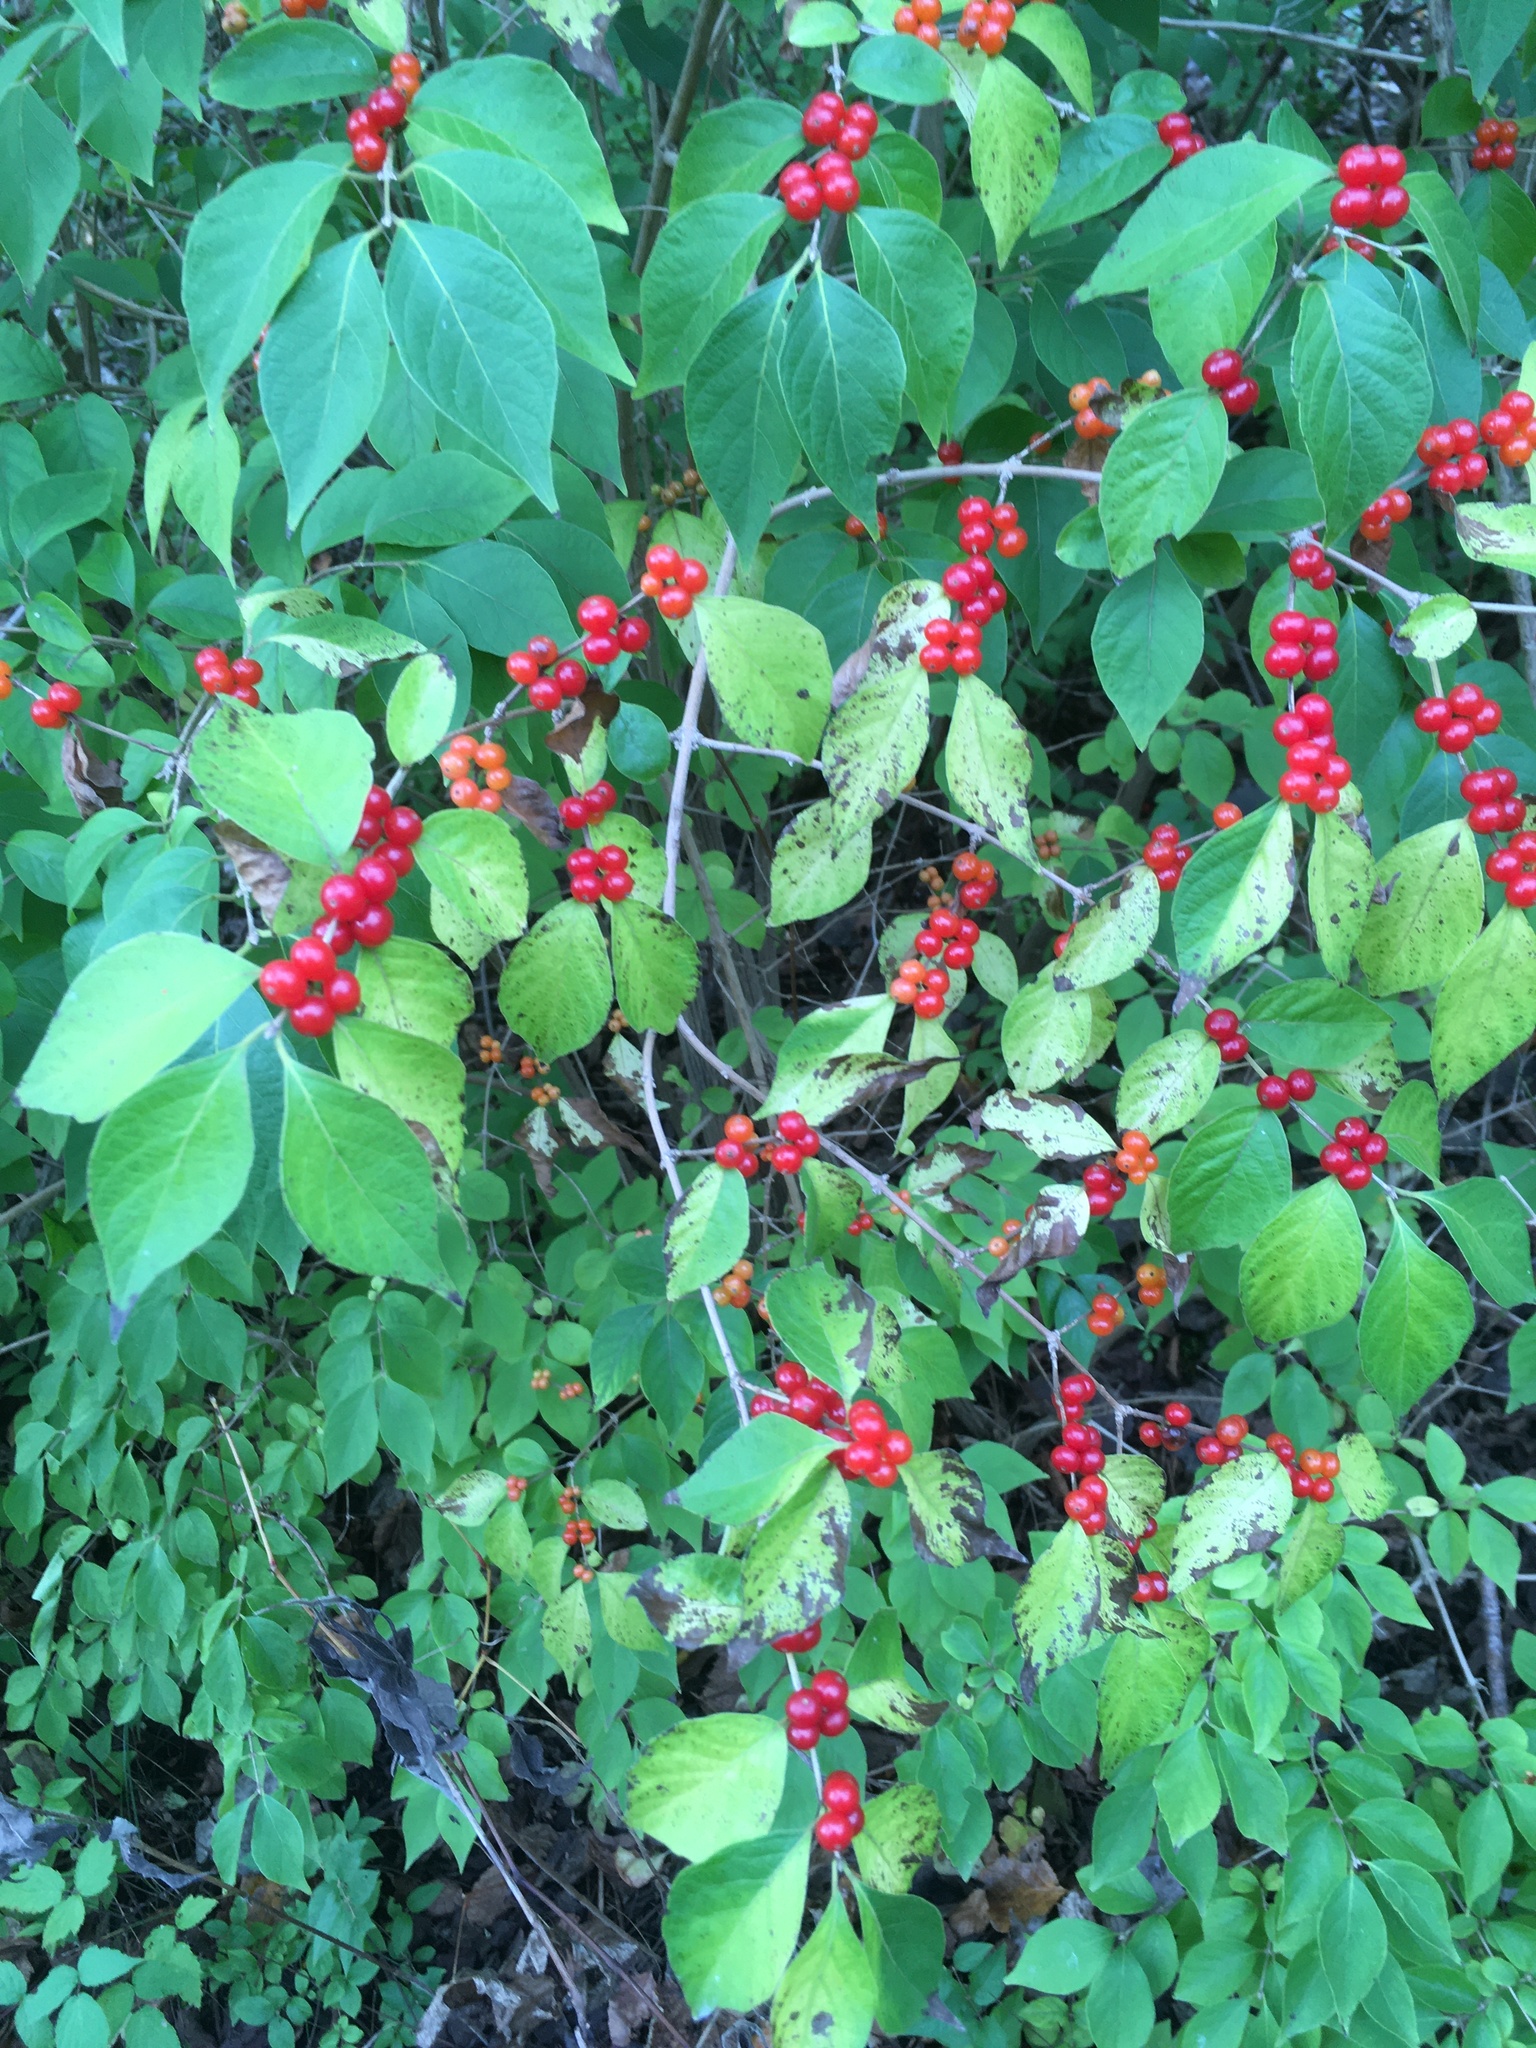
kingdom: Plantae
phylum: Tracheophyta
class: Magnoliopsida
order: Dipsacales
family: Caprifoliaceae
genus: Lonicera
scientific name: Lonicera maackii
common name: Amur honeysuckle
